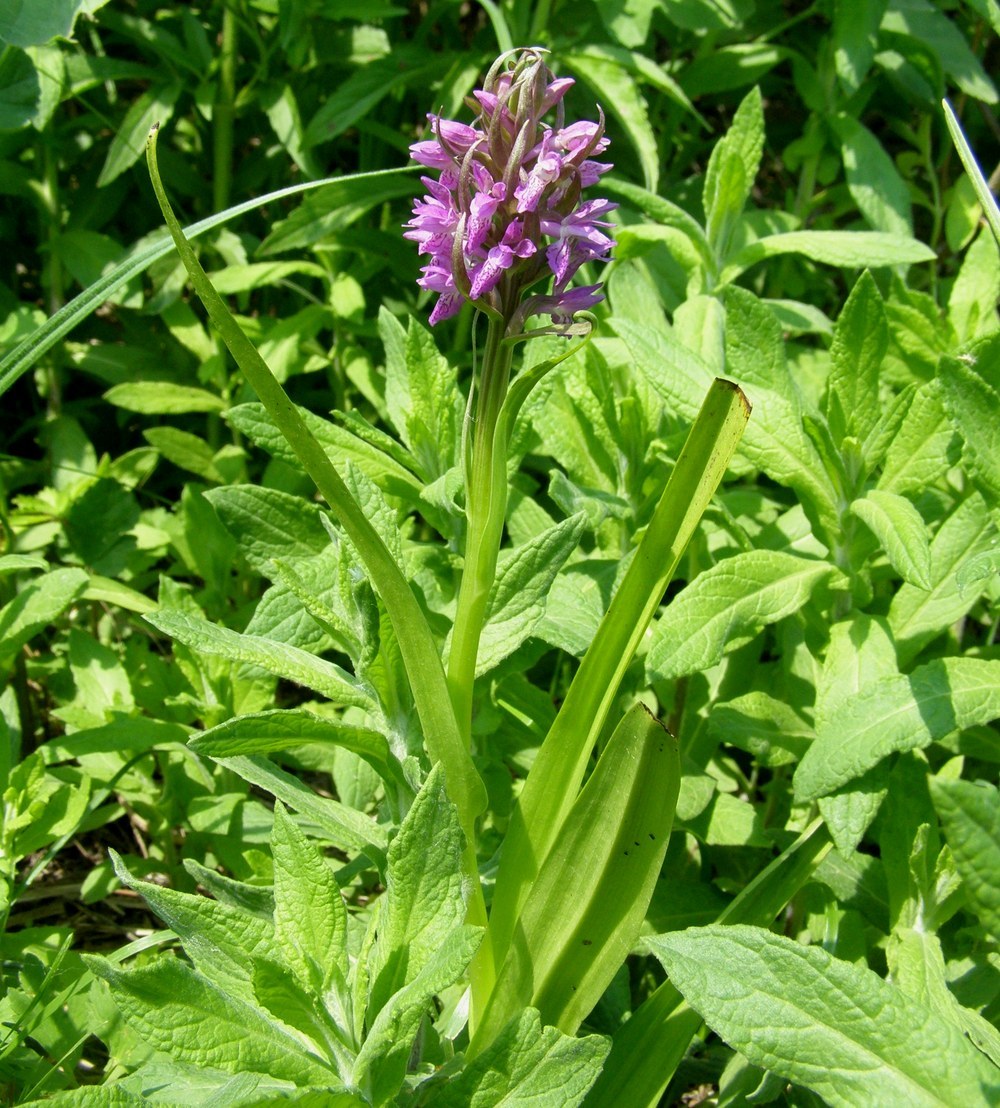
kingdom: Plantae
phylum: Tracheophyta
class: Liliopsida
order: Asparagales
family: Orchidaceae
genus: Dactylorhiza
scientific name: Dactylorhiza incarnata
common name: Early marsh-orchid
